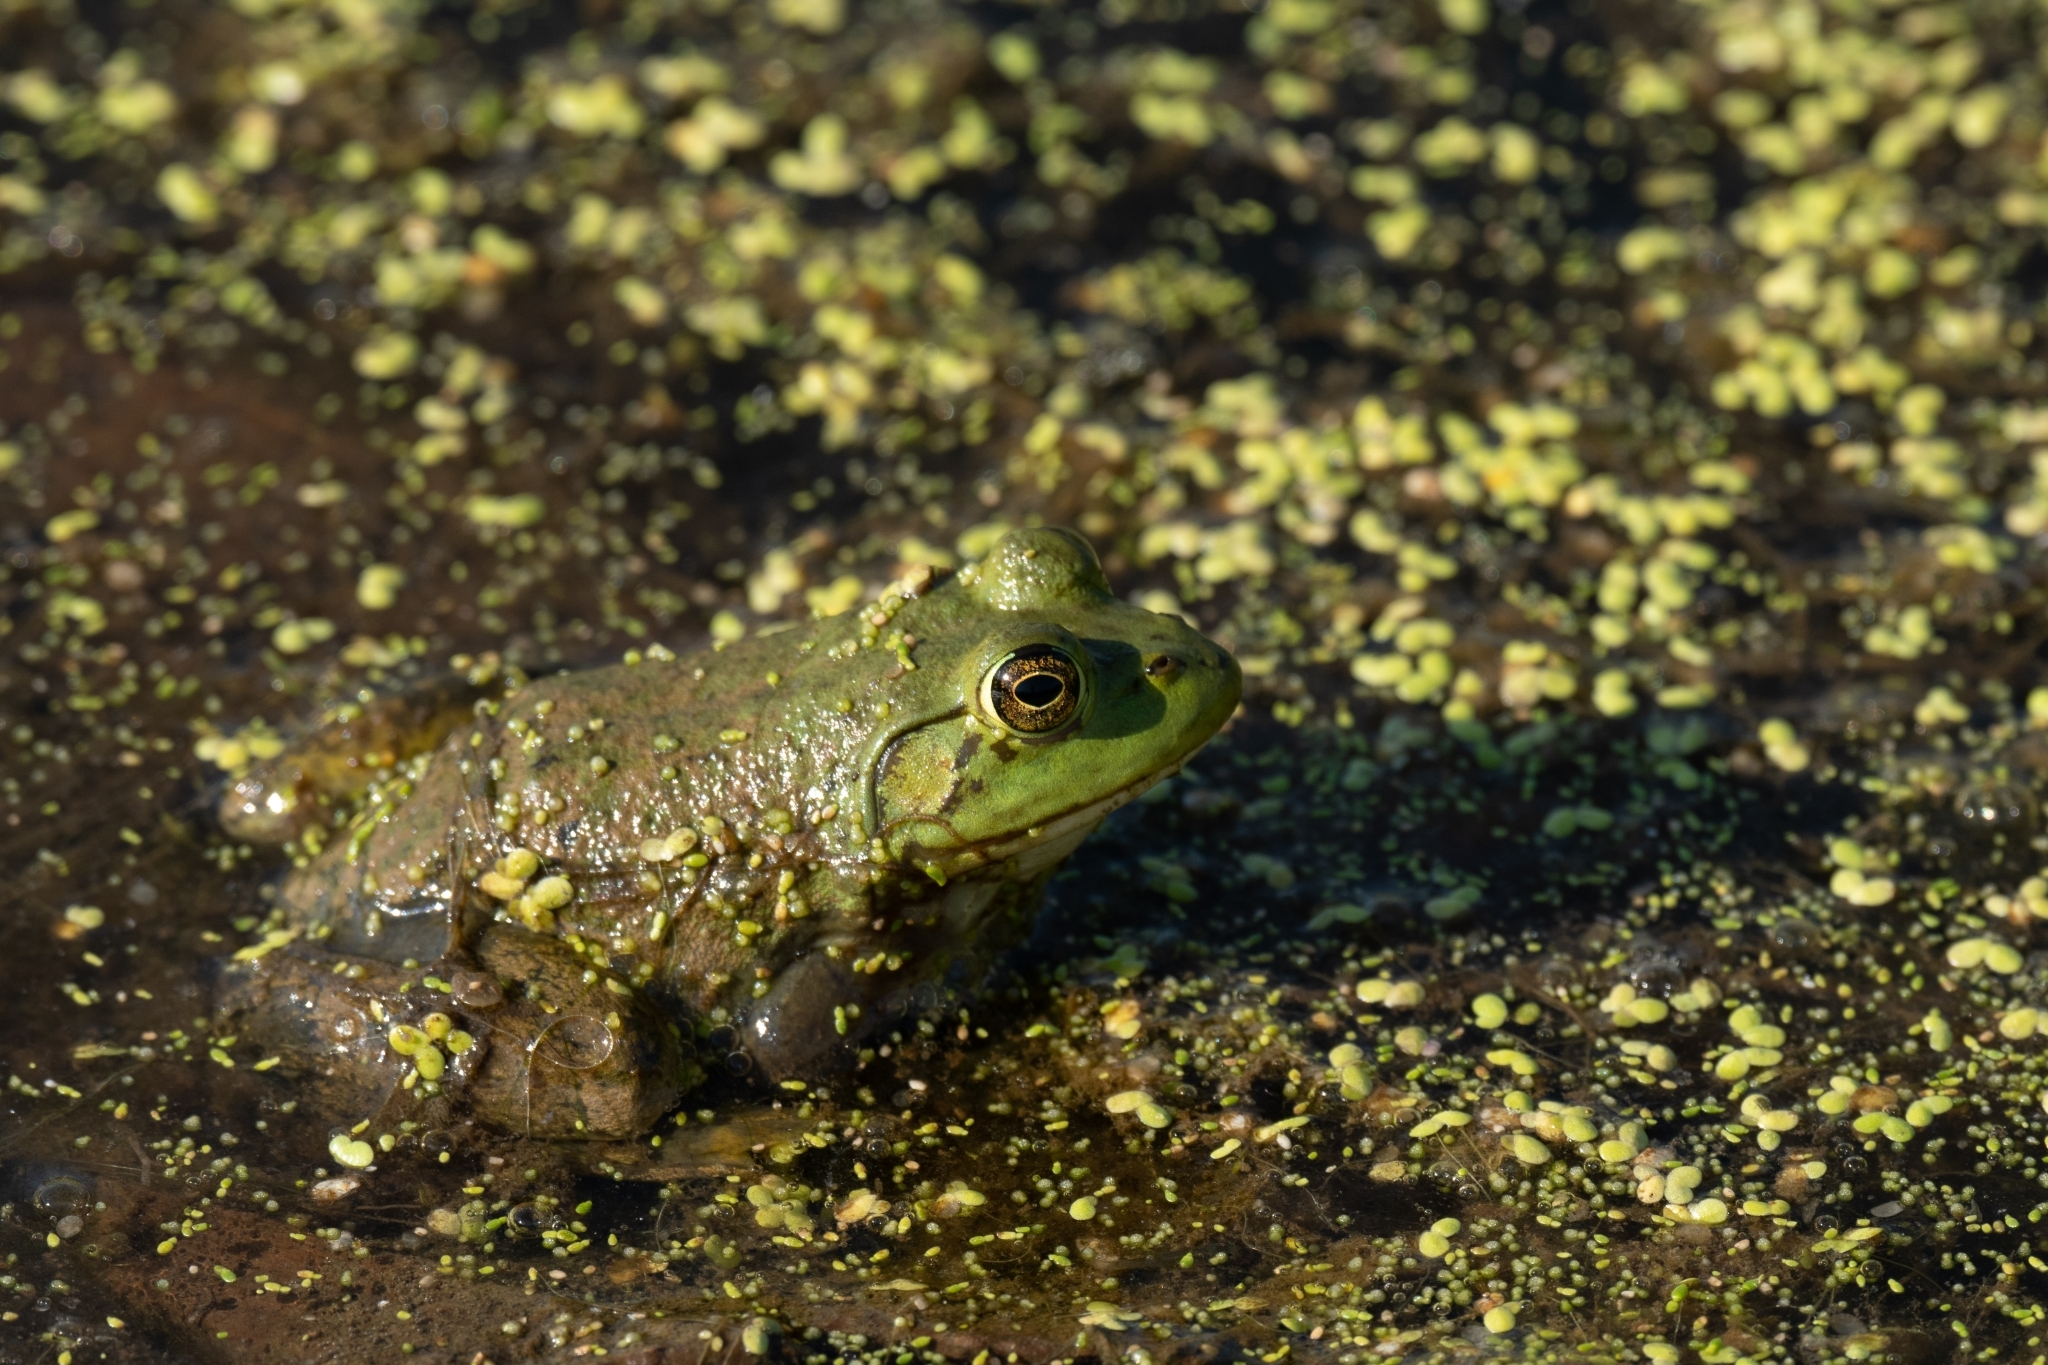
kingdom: Animalia
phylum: Chordata
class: Amphibia
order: Anura
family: Ranidae
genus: Lithobates
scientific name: Lithobates catesbeianus
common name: American bullfrog
